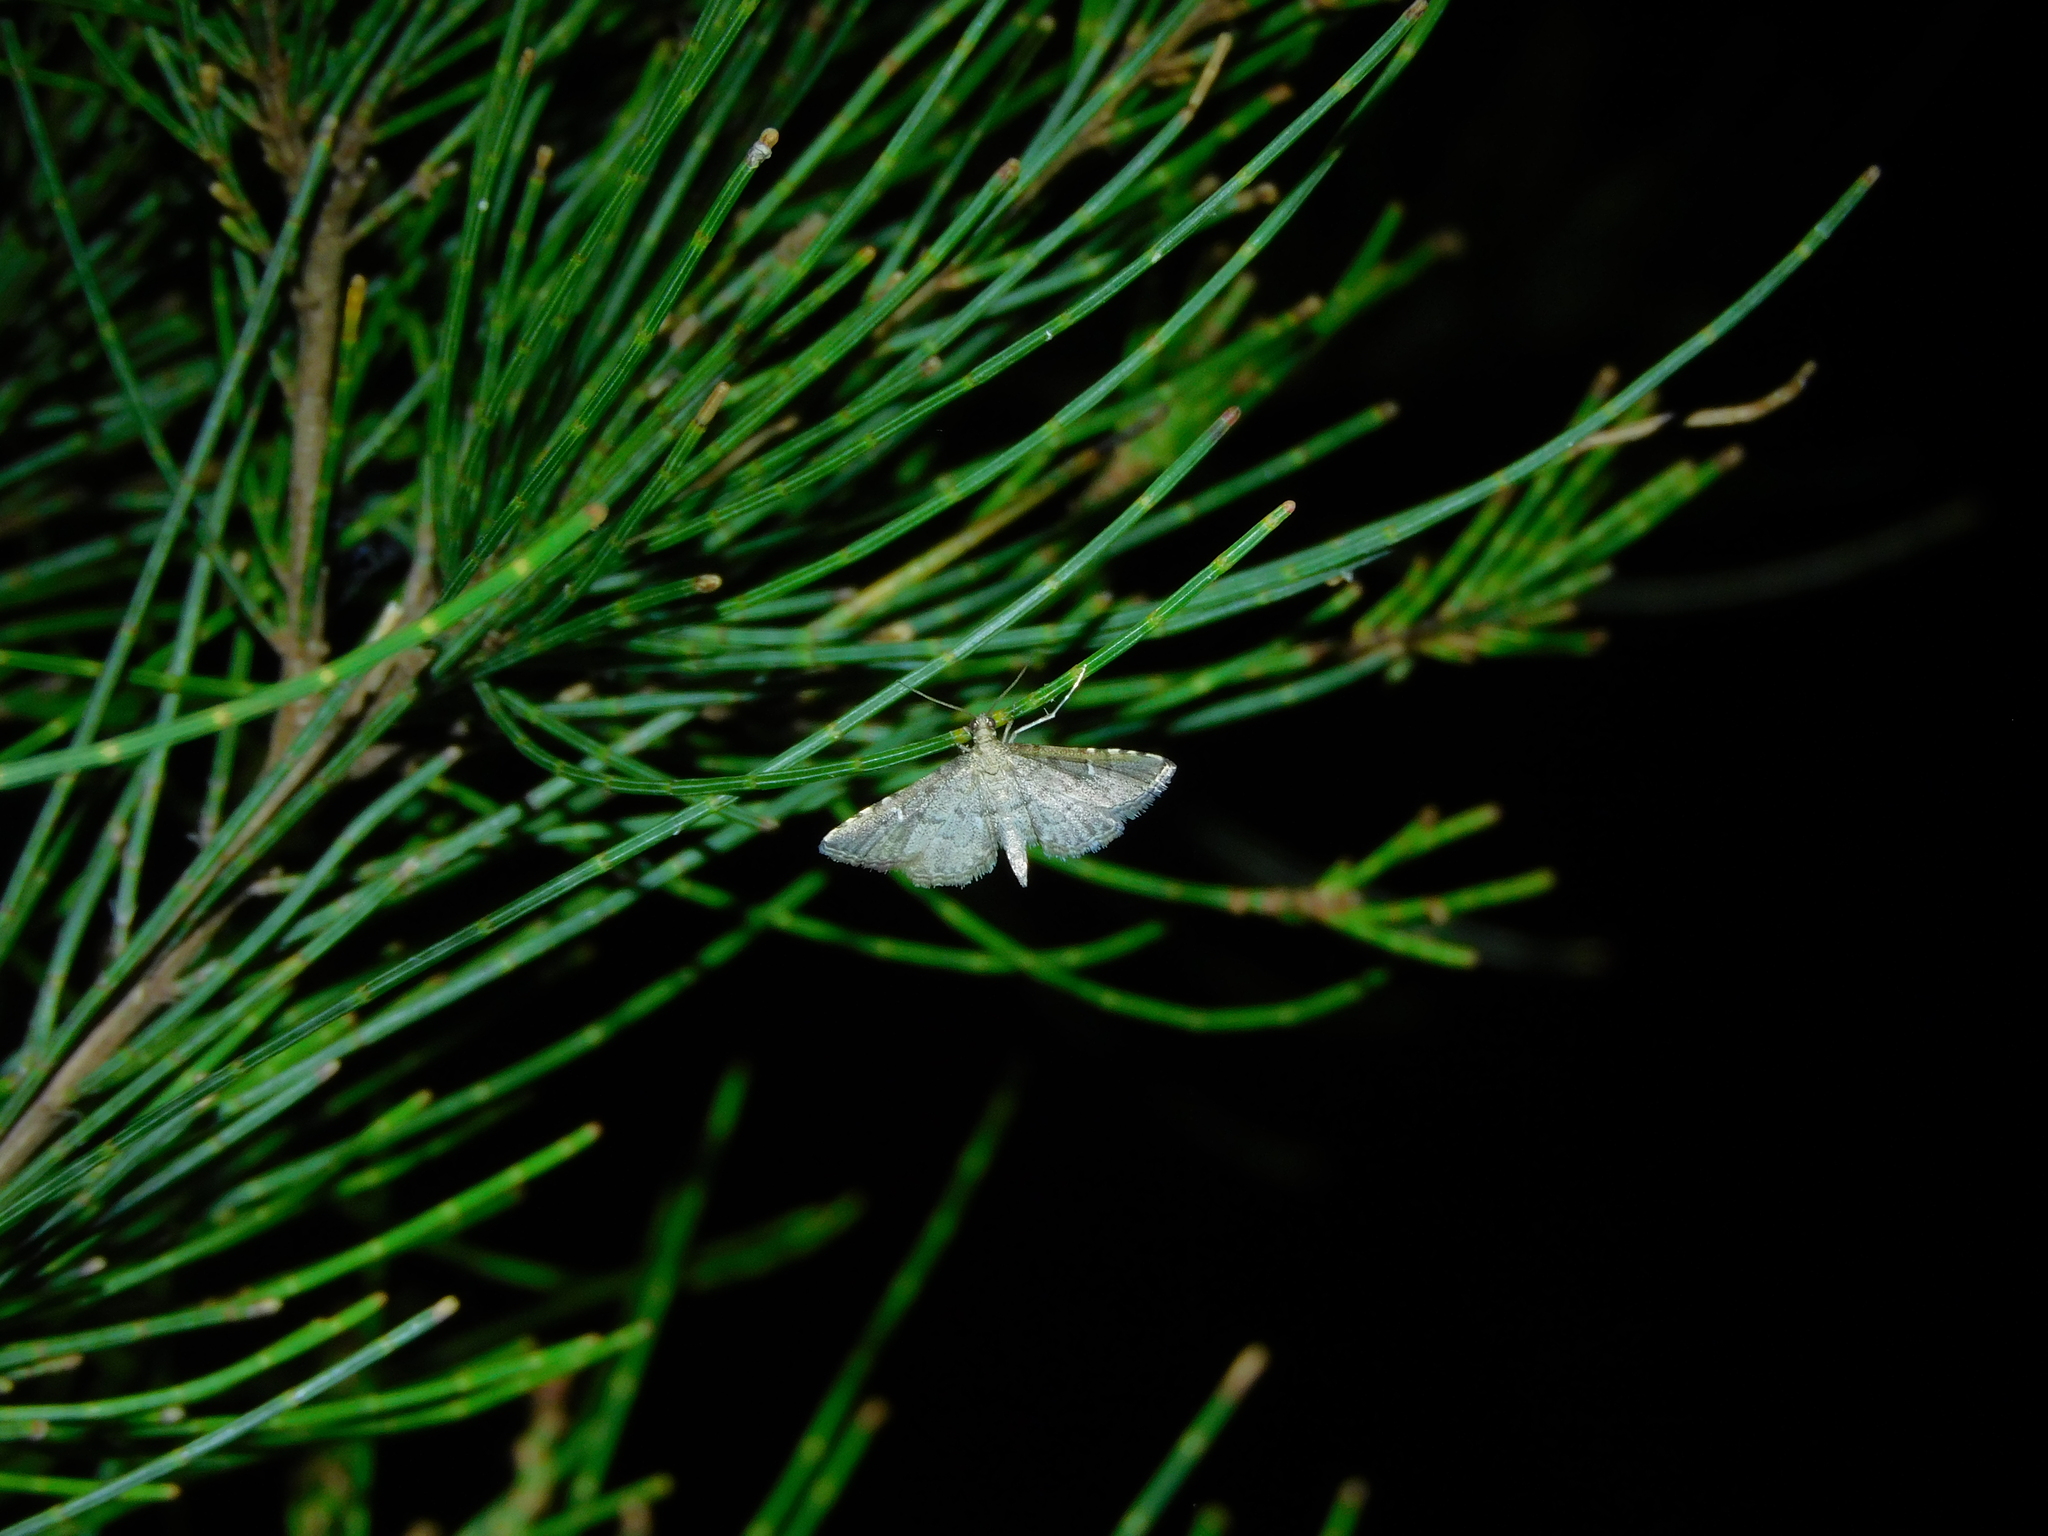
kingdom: Animalia
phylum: Arthropoda
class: Insecta
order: Lepidoptera
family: Crambidae
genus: Metasia
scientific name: Metasia capnochroa
